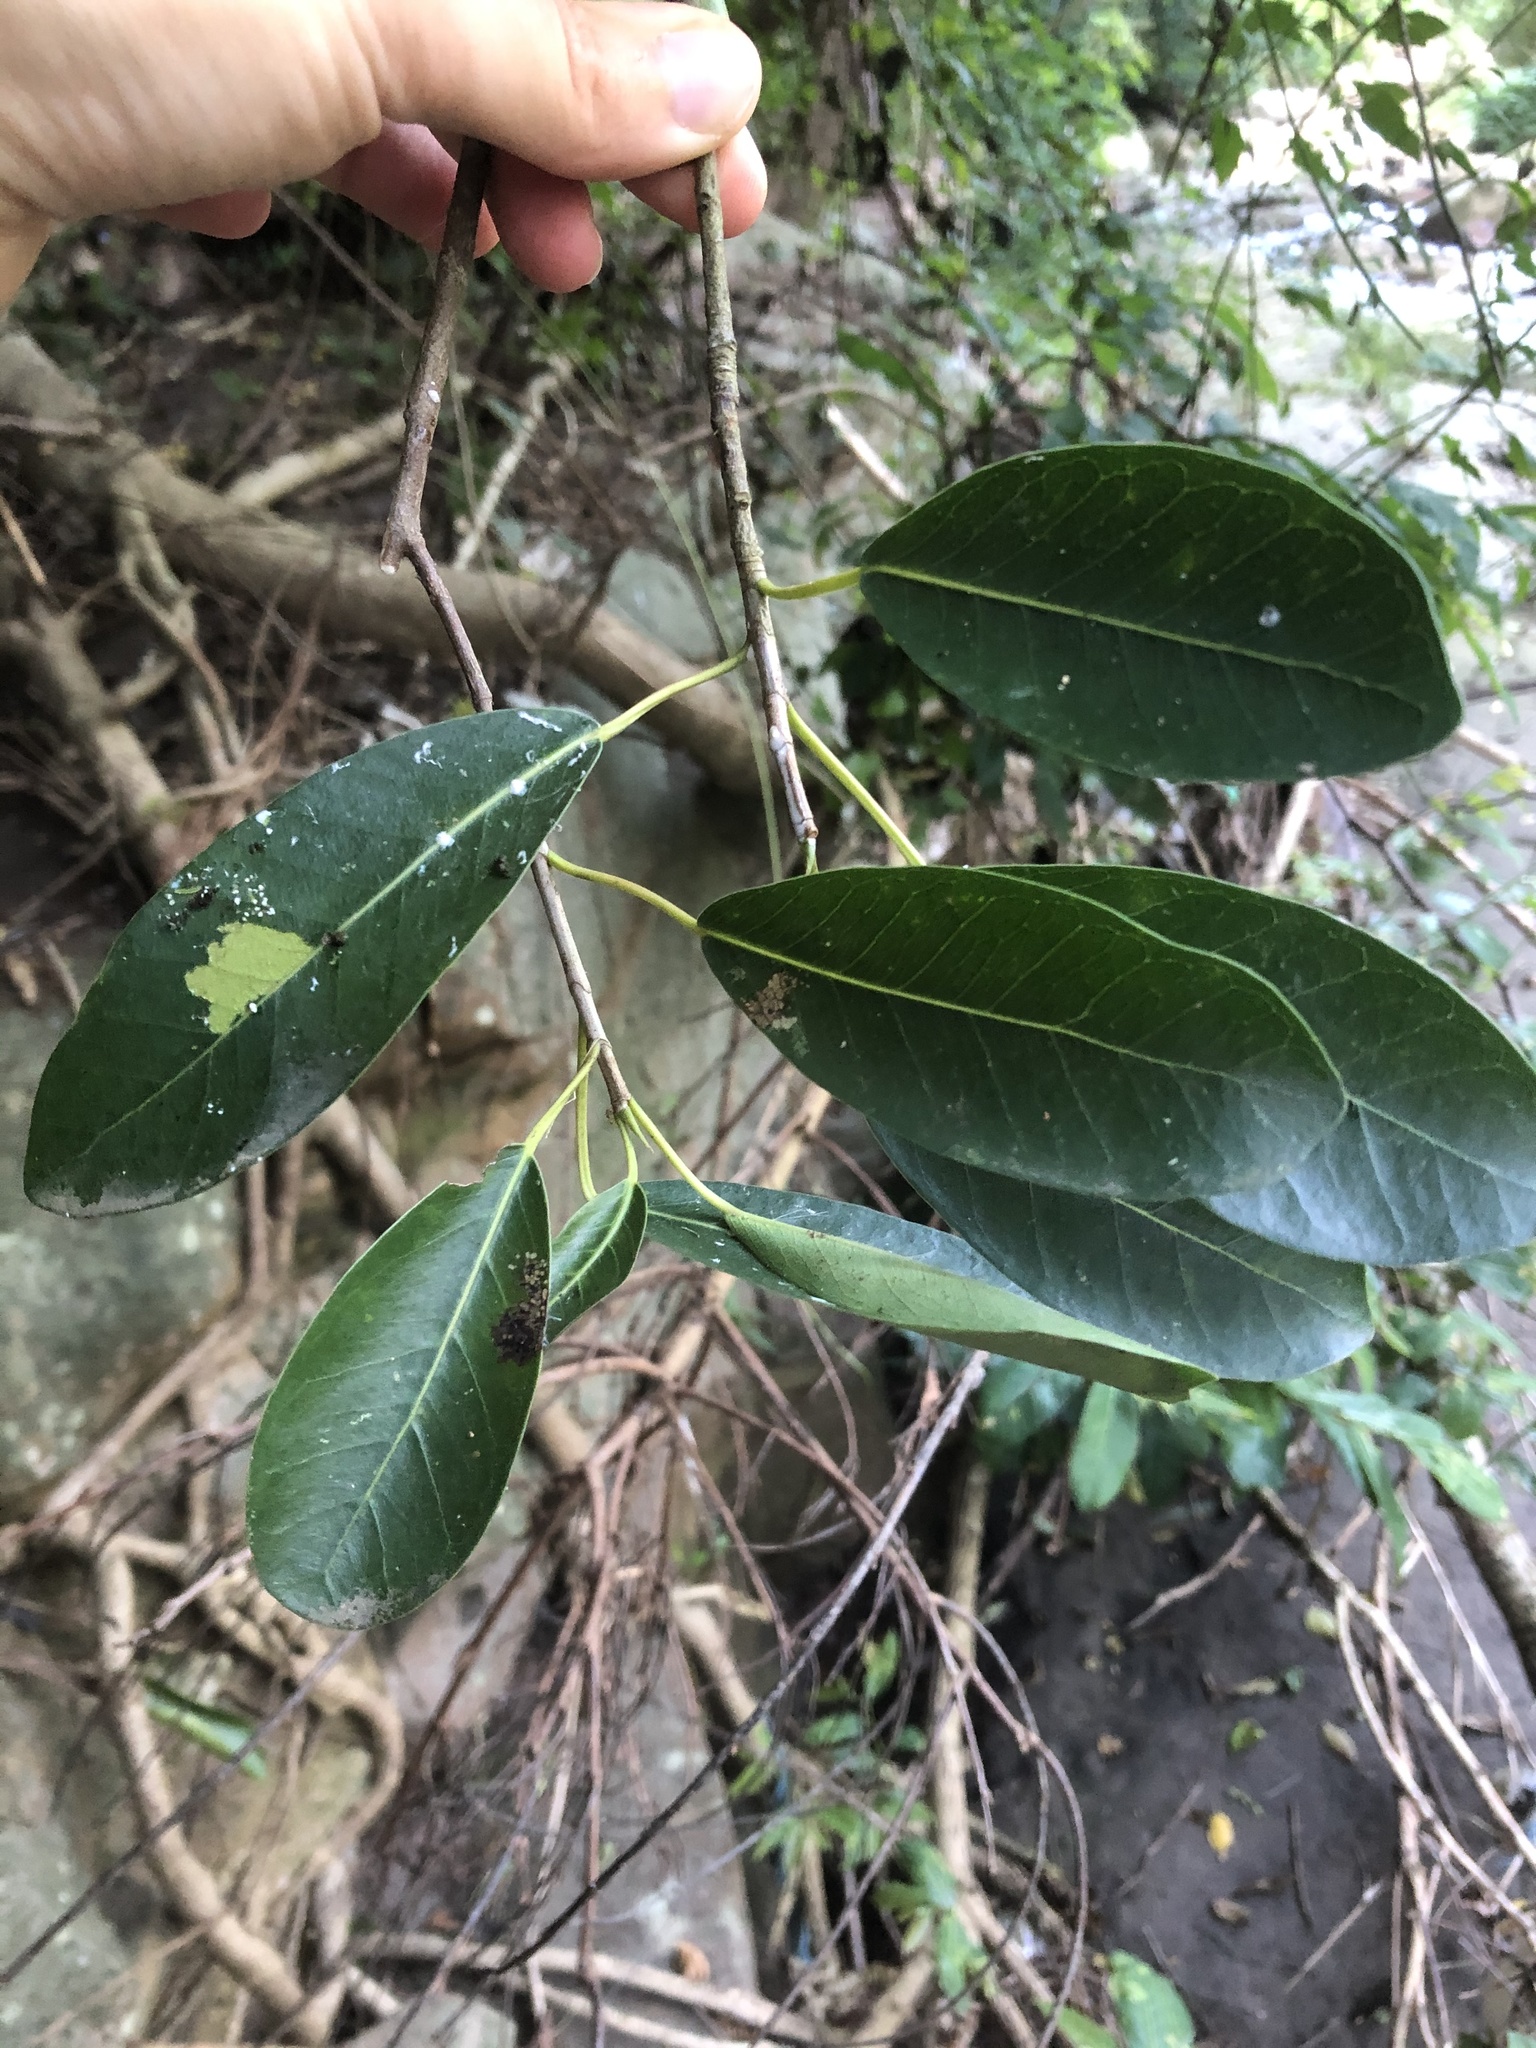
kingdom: Plantae
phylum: Tracheophyta
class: Magnoliopsida
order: Rosales
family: Moraceae
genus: Ficus
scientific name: Ficus thonningii
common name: Fig
